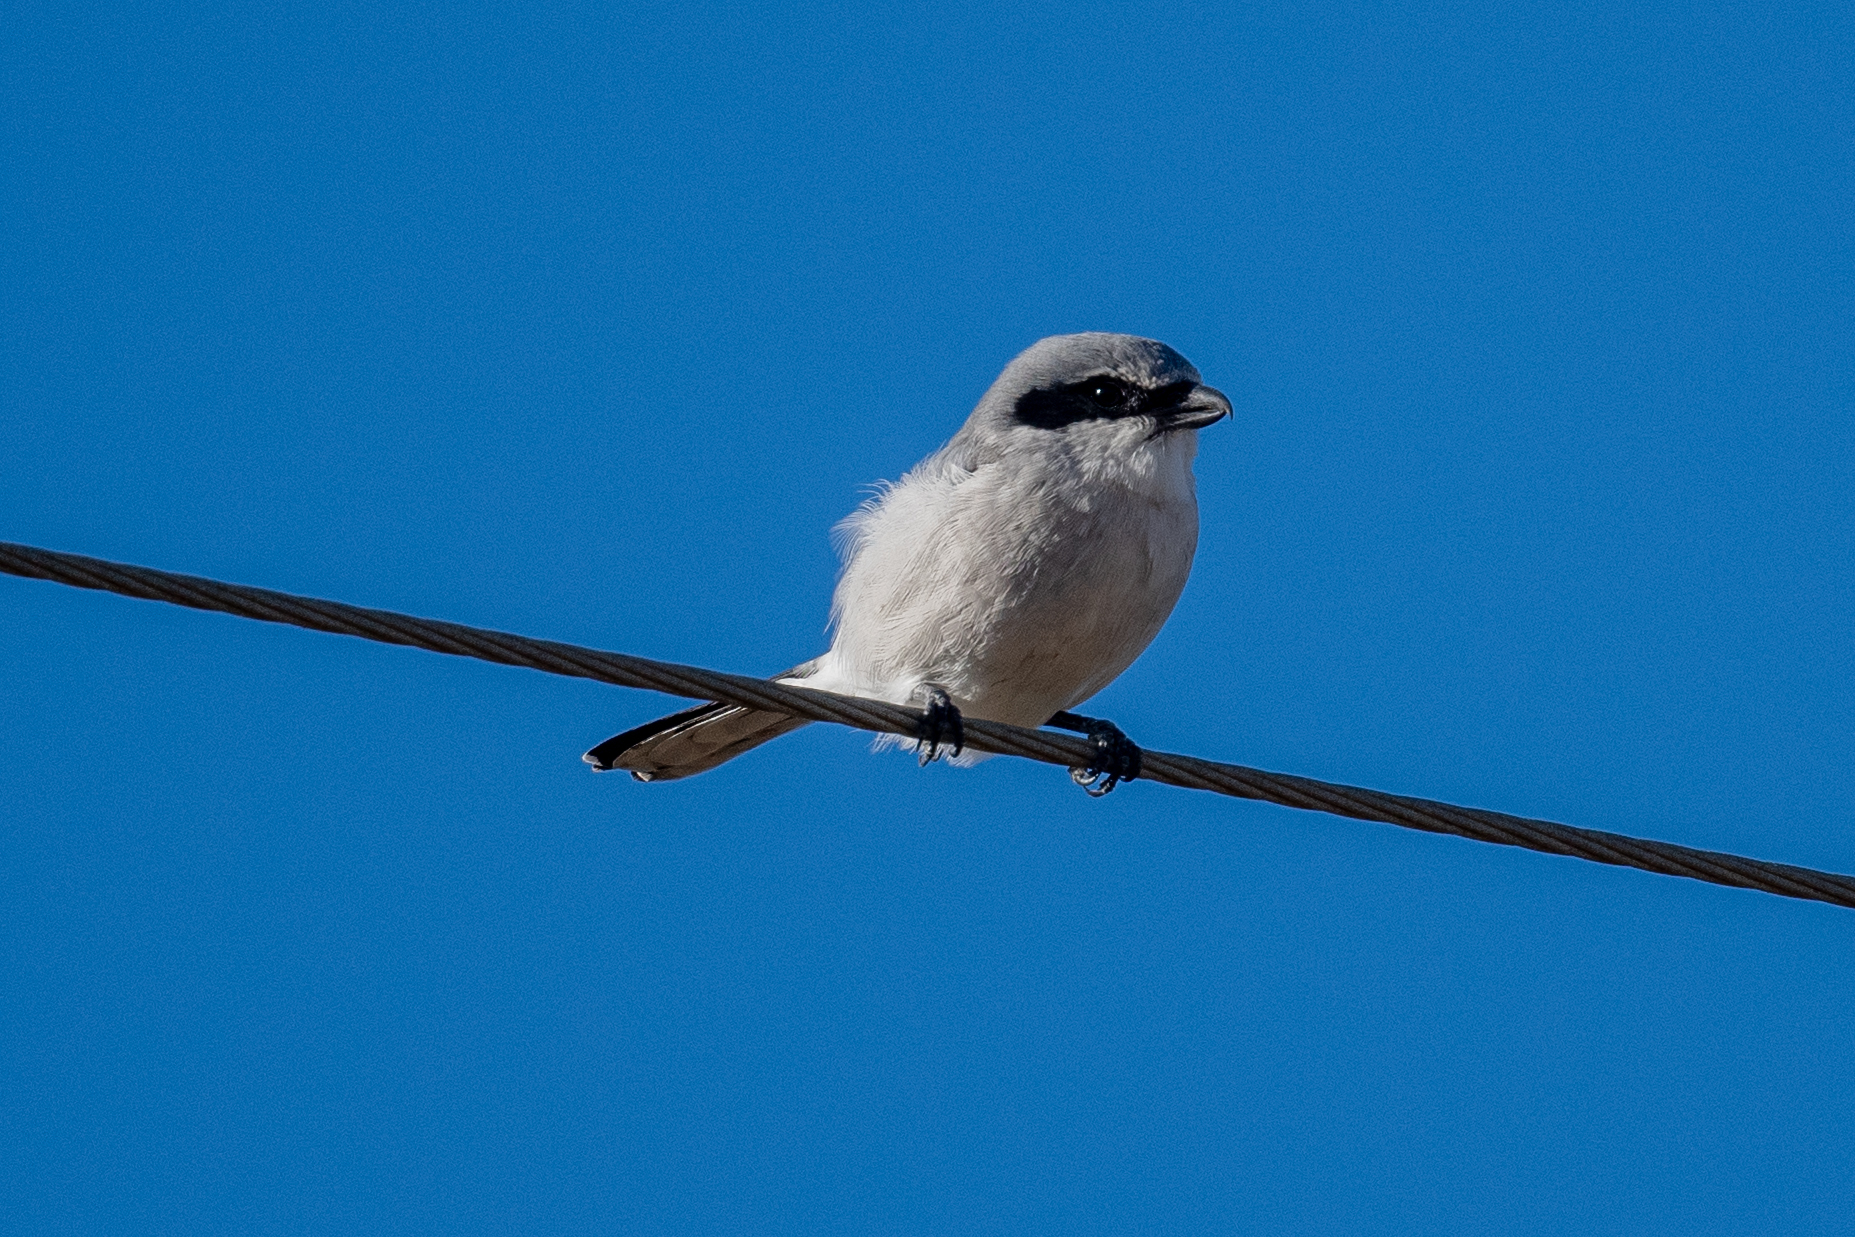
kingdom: Animalia
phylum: Chordata
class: Aves
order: Passeriformes
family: Laniidae
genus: Lanius
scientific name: Lanius ludovicianus
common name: Loggerhead shrike
